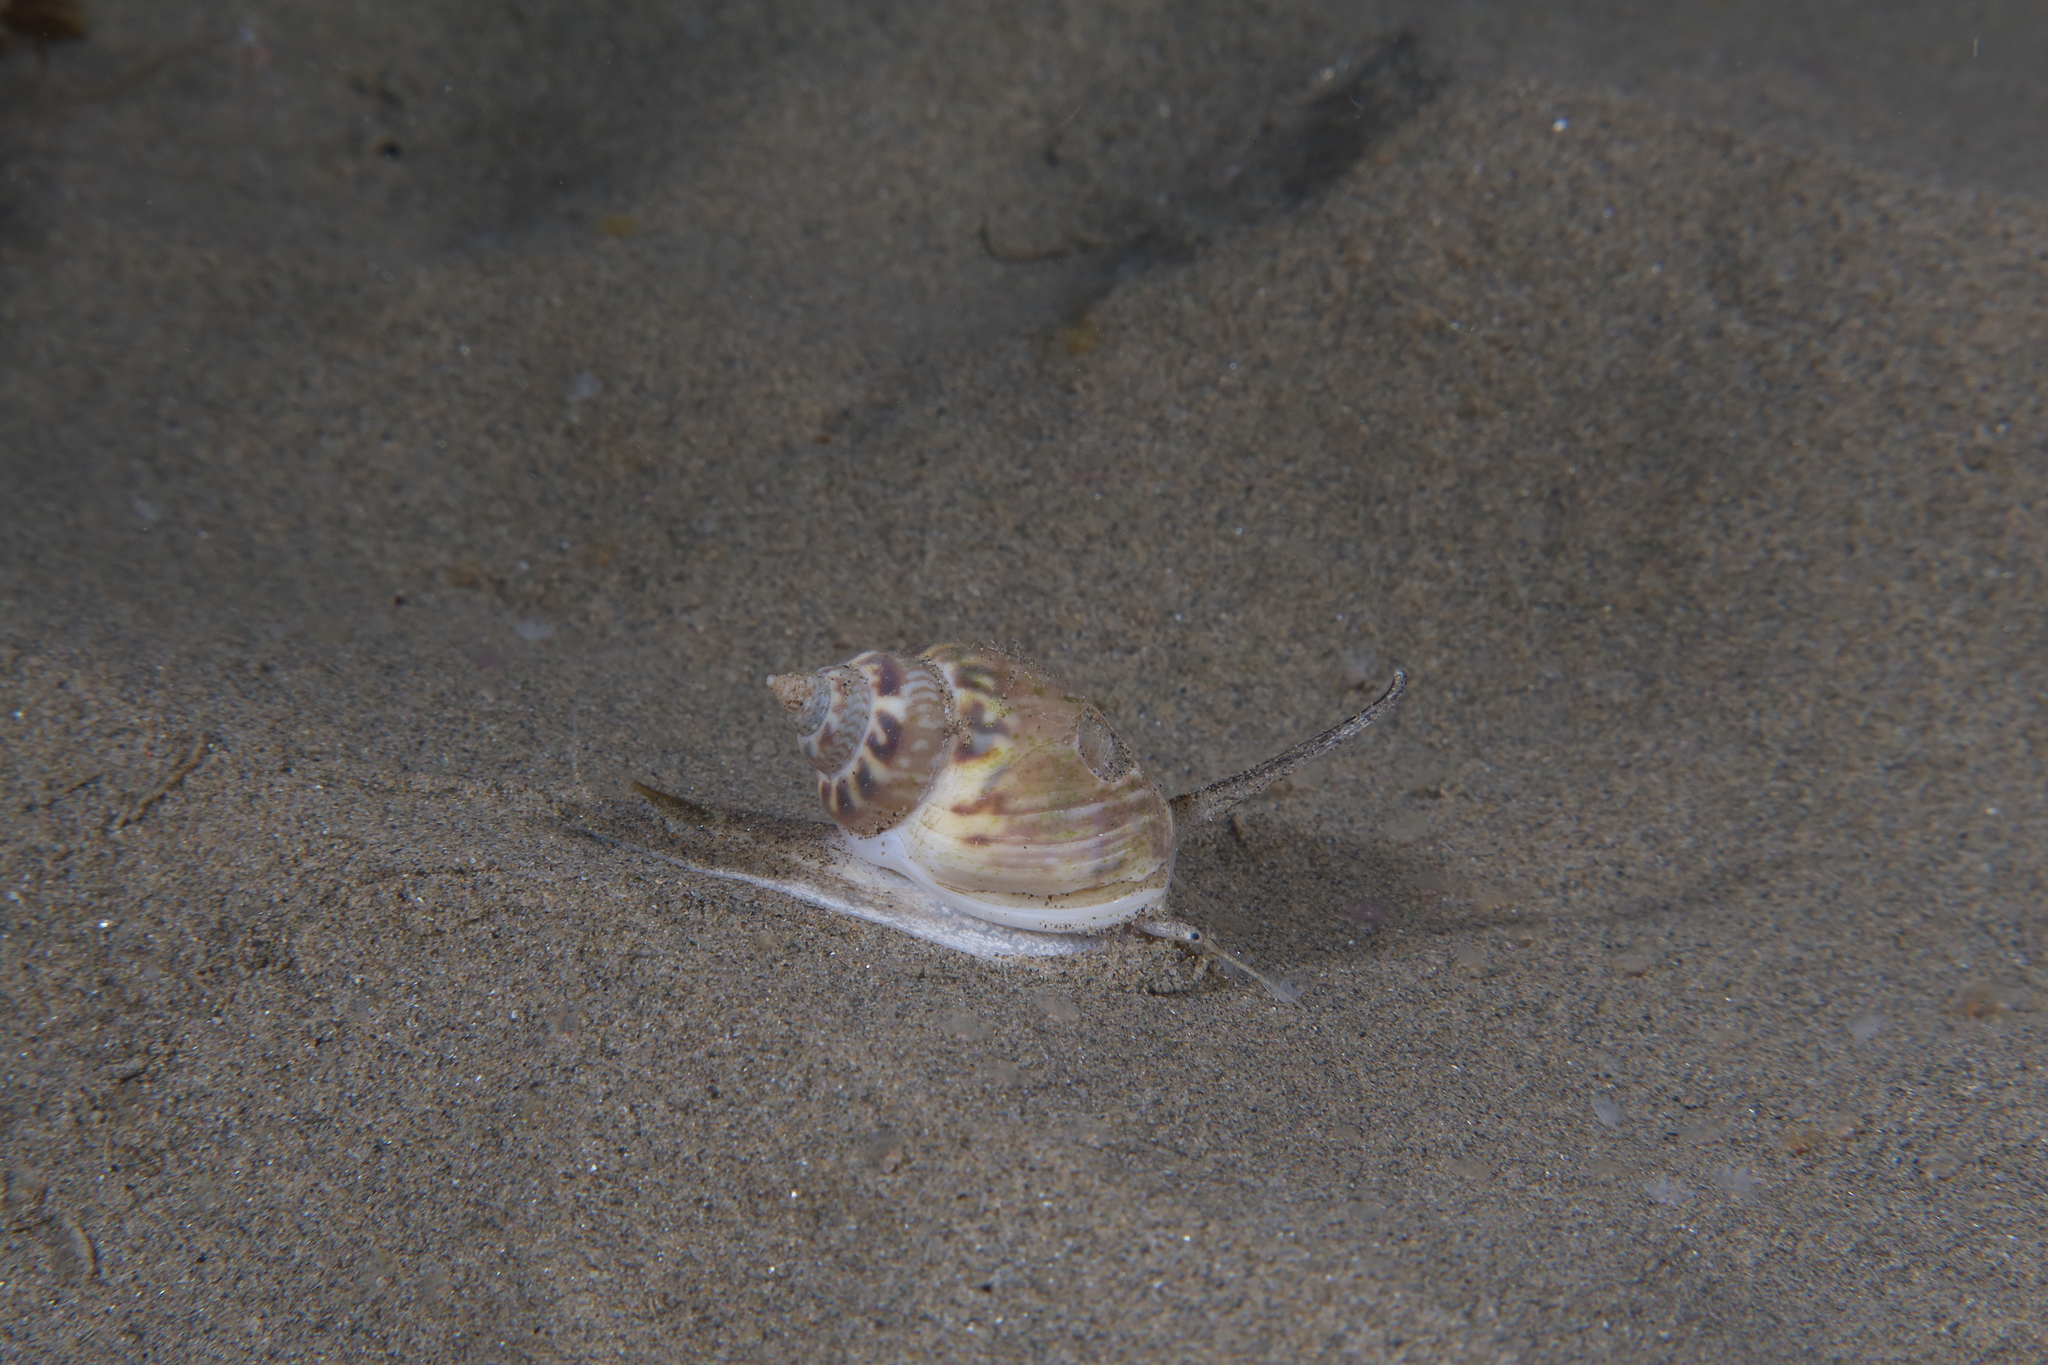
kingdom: Animalia
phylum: Mollusca
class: Gastropoda
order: Neogastropoda
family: Nassariidae
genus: Tritia
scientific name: Tritia mutabilis
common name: Mutable nassa
